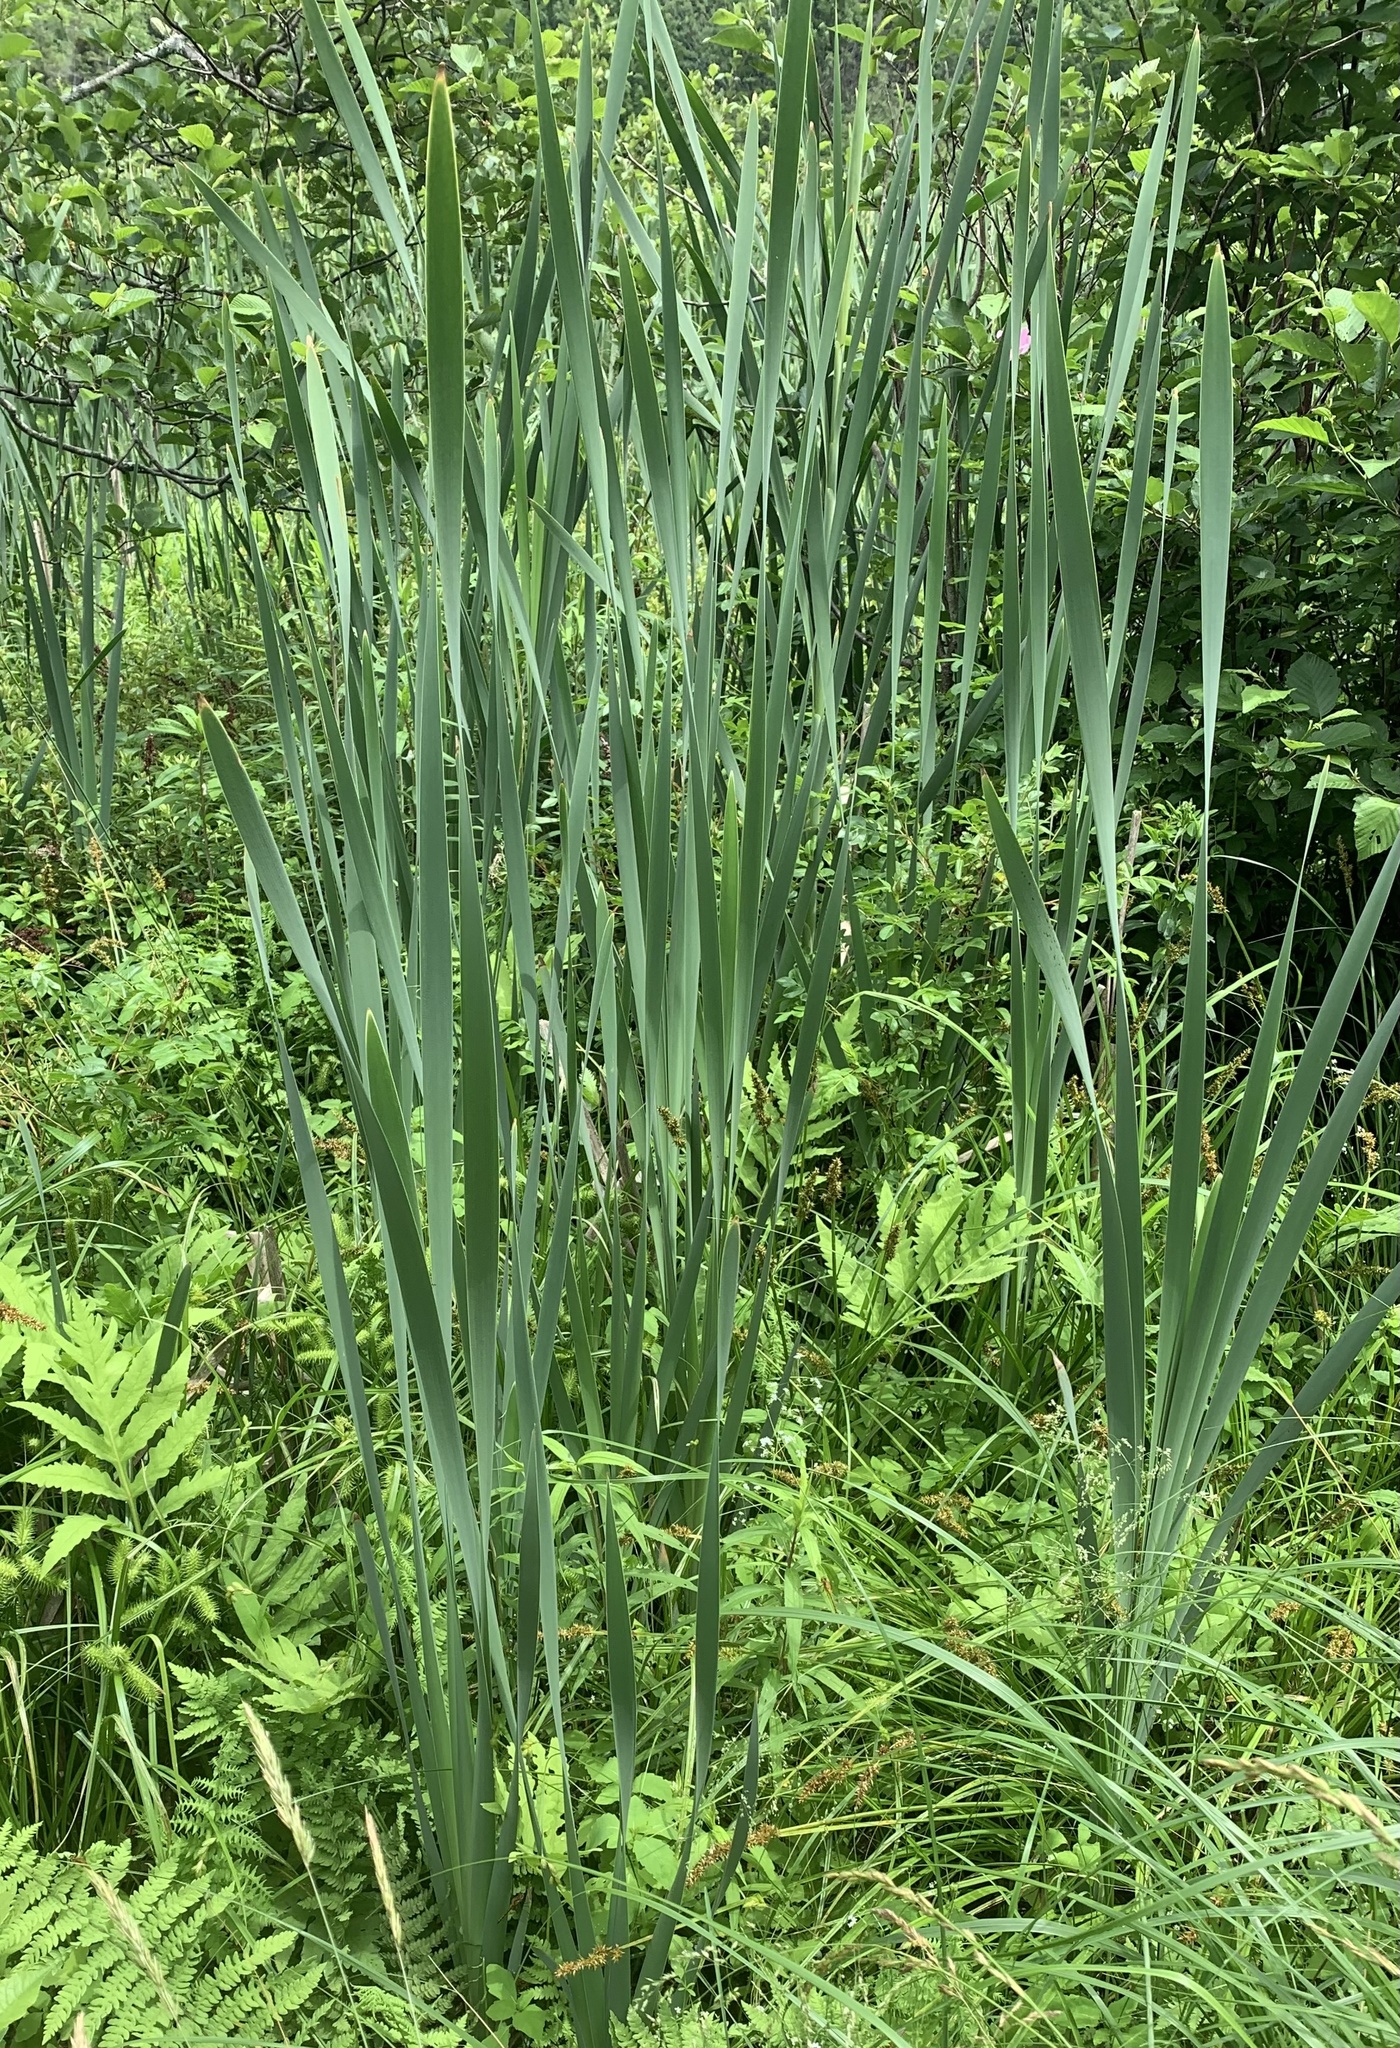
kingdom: Plantae
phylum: Tracheophyta
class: Liliopsida
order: Poales
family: Typhaceae
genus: Typha
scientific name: Typha latifolia
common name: Broadleaf cattail
